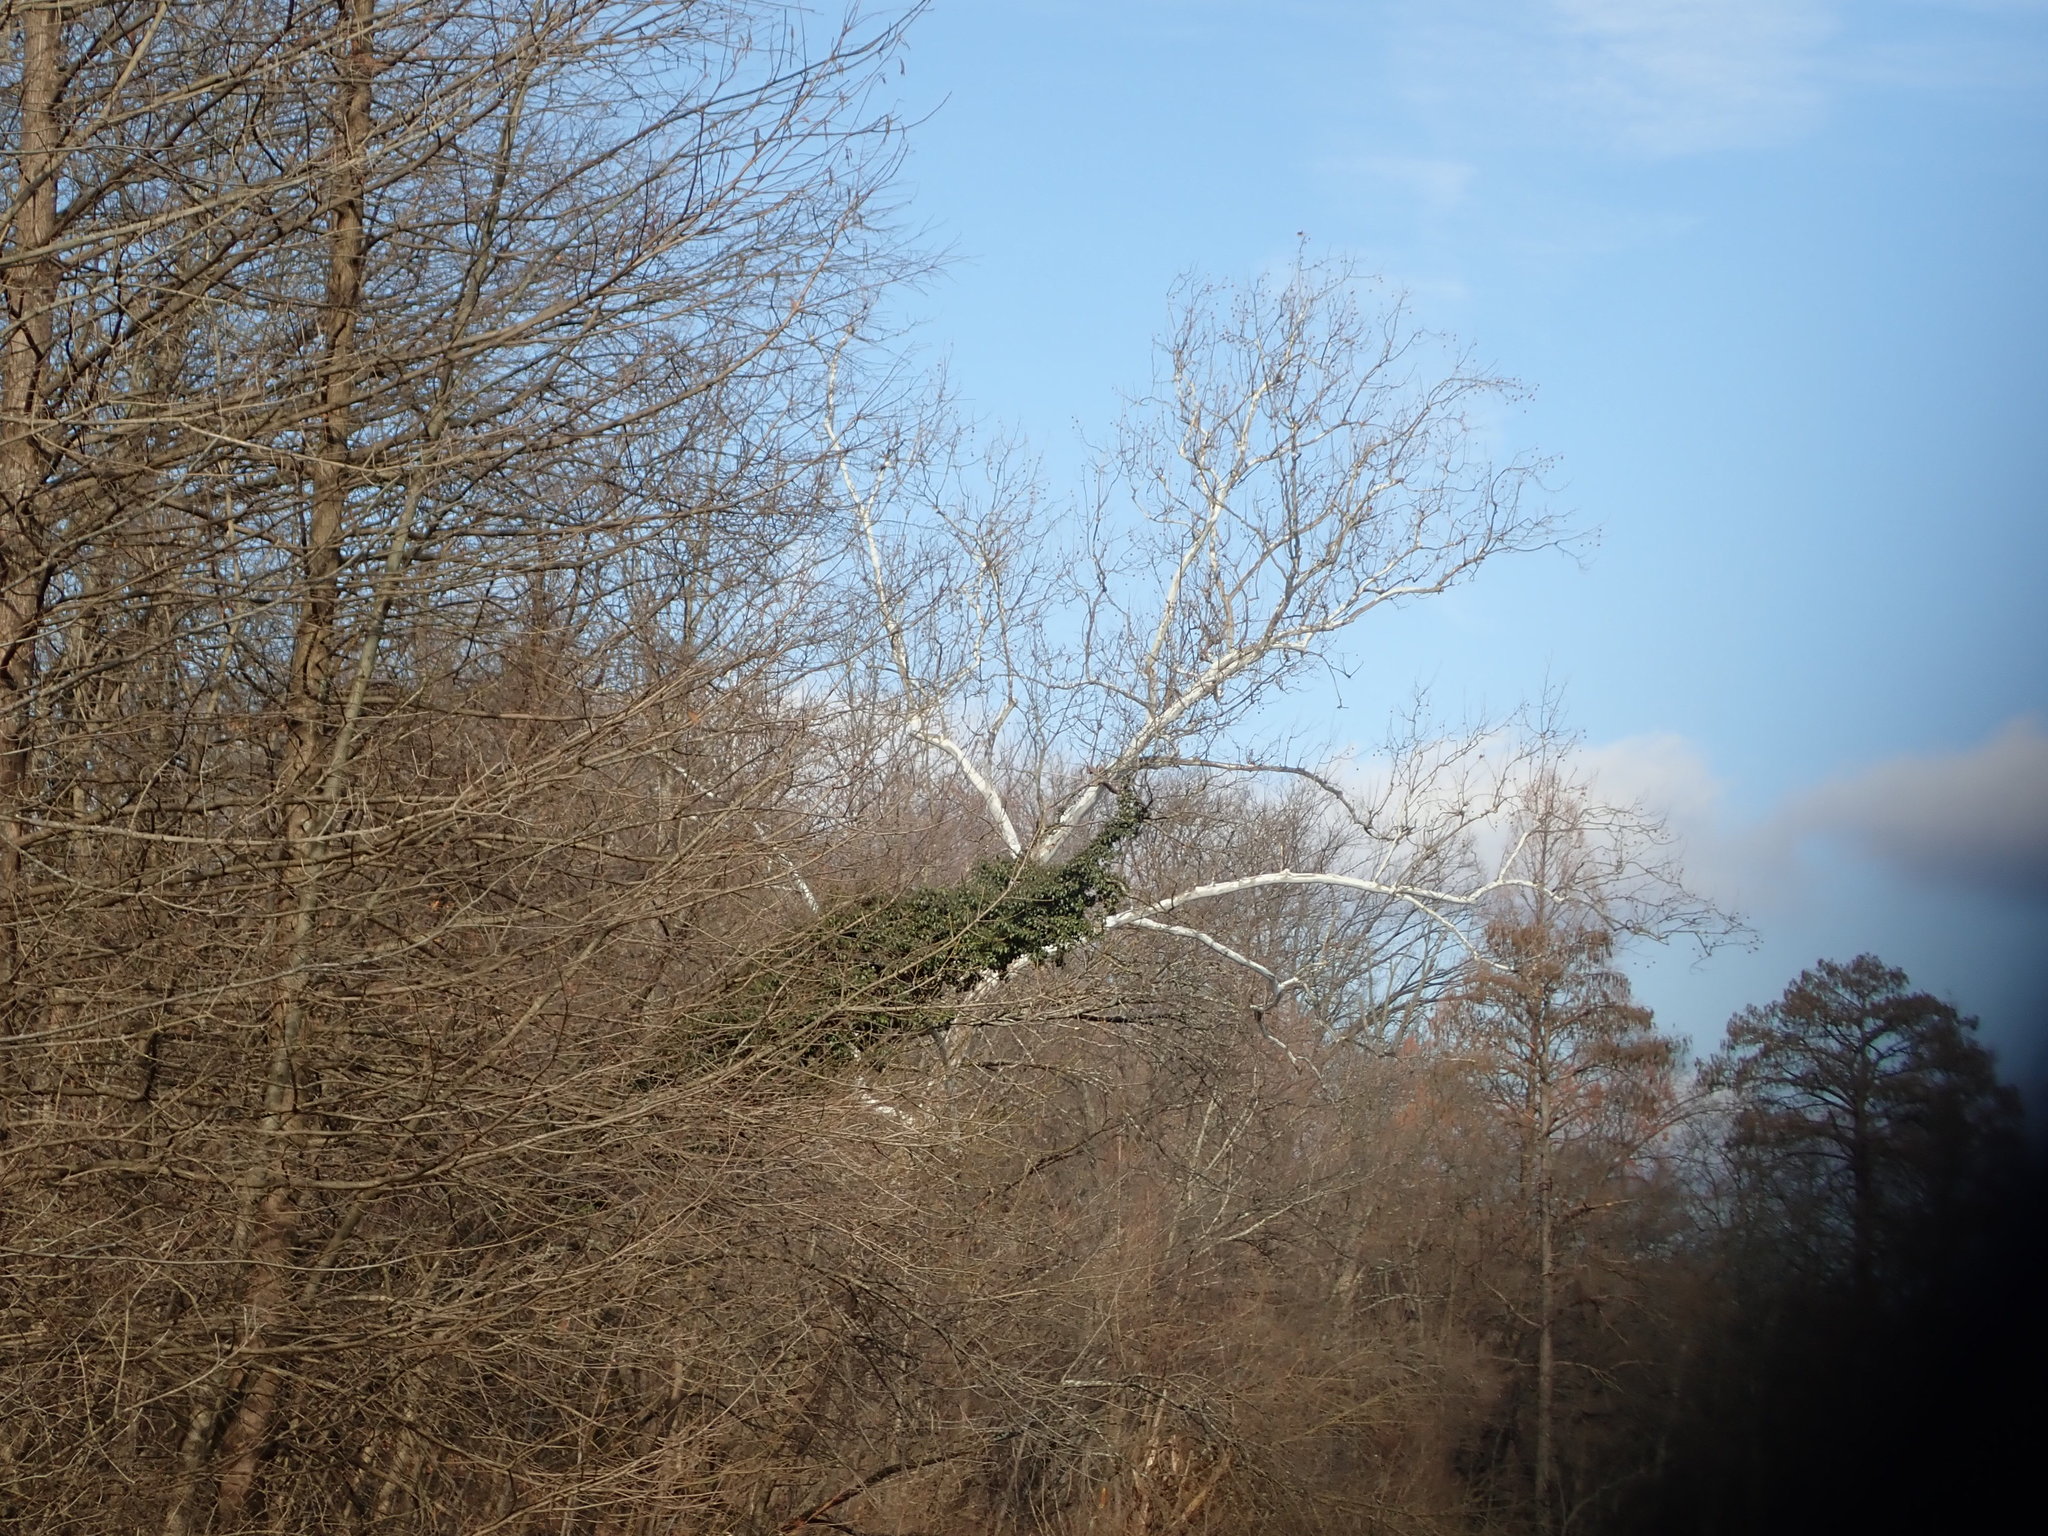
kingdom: Plantae
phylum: Tracheophyta
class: Magnoliopsida
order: Proteales
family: Platanaceae
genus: Platanus
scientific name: Platanus occidentalis
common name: American sycamore
